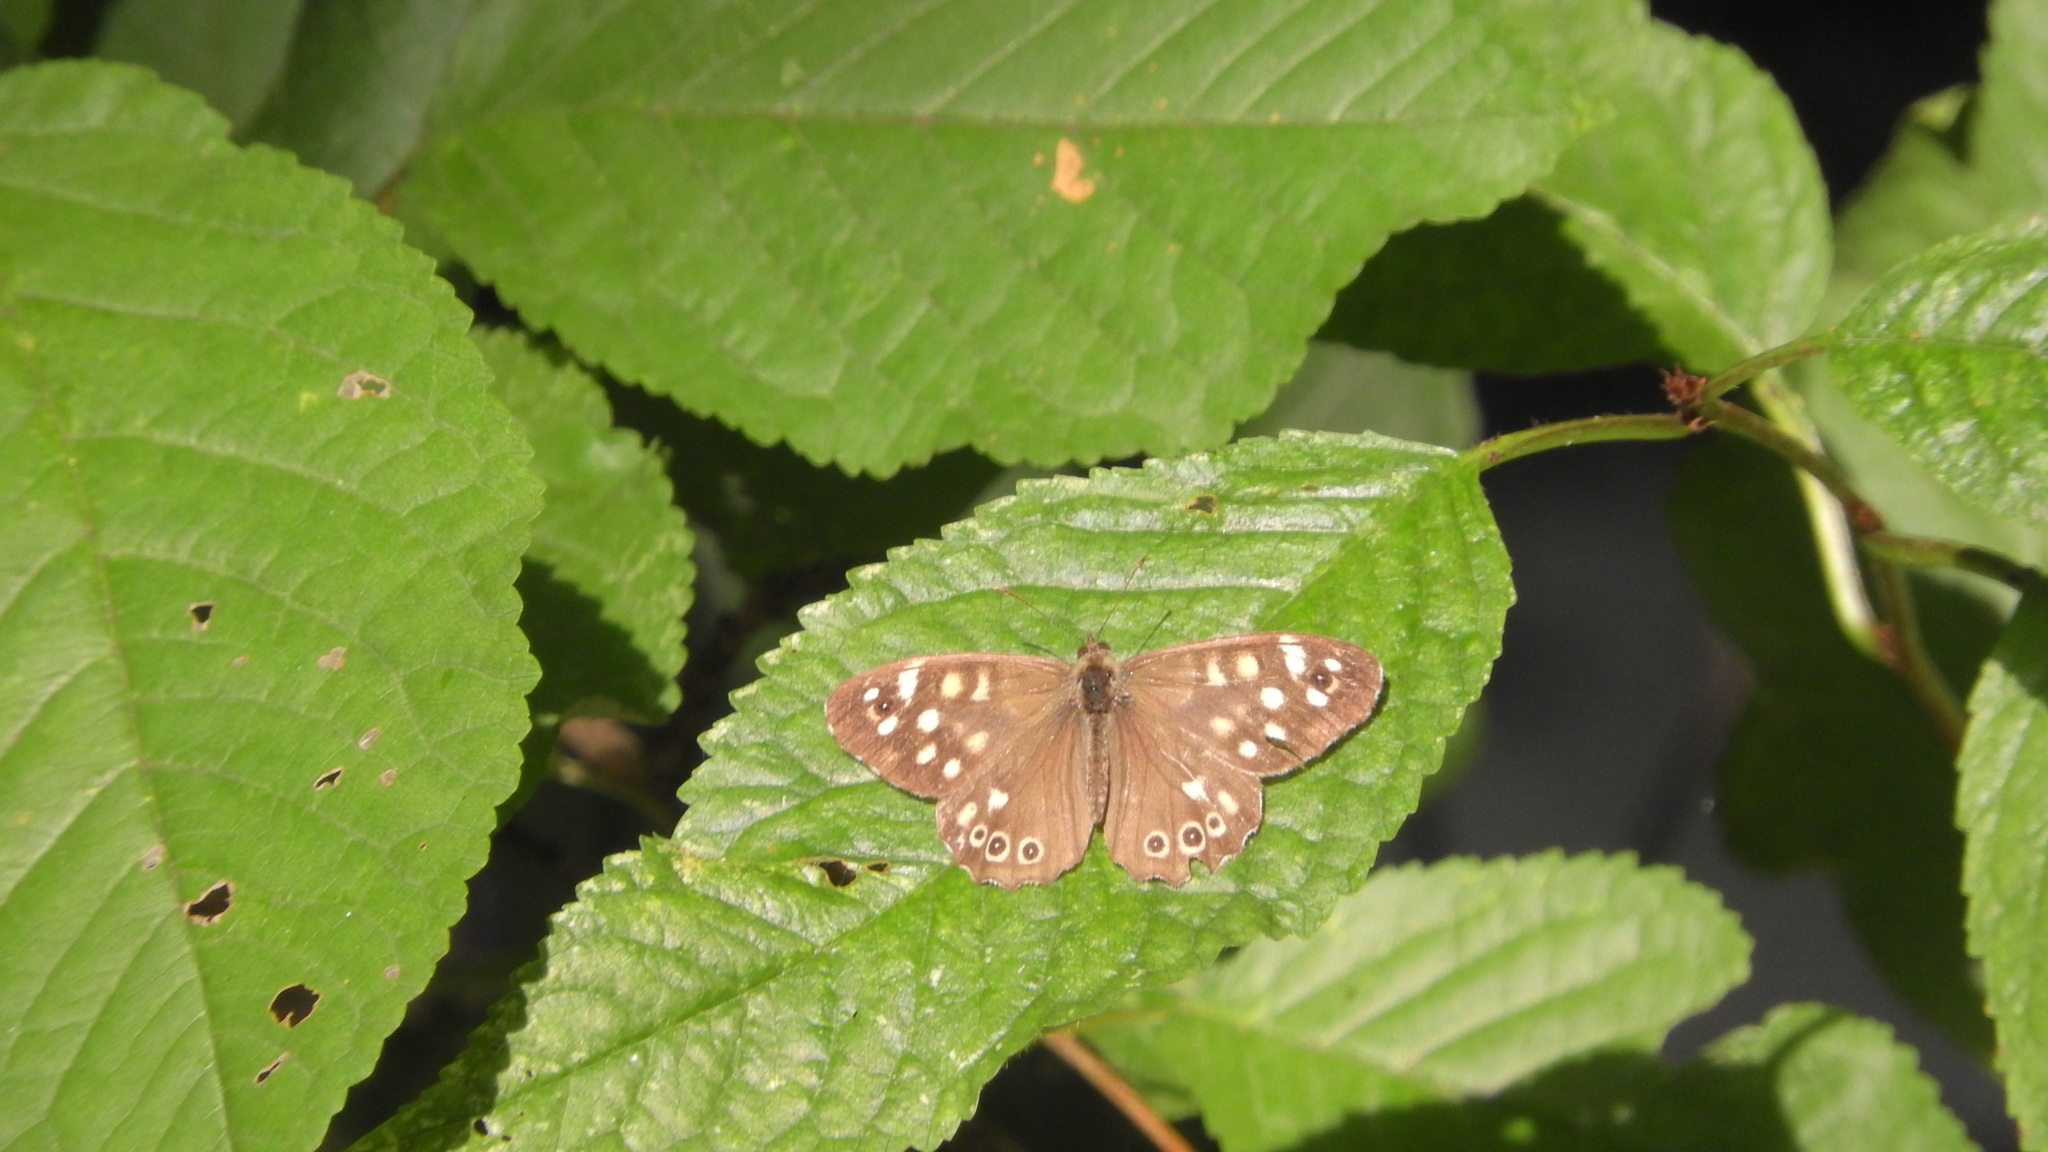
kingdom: Animalia
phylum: Arthropoda
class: Insecta
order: Lepidoptera
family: Nymphalidae
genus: Pararge
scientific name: Pararge aegeria
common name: Speckled wood
